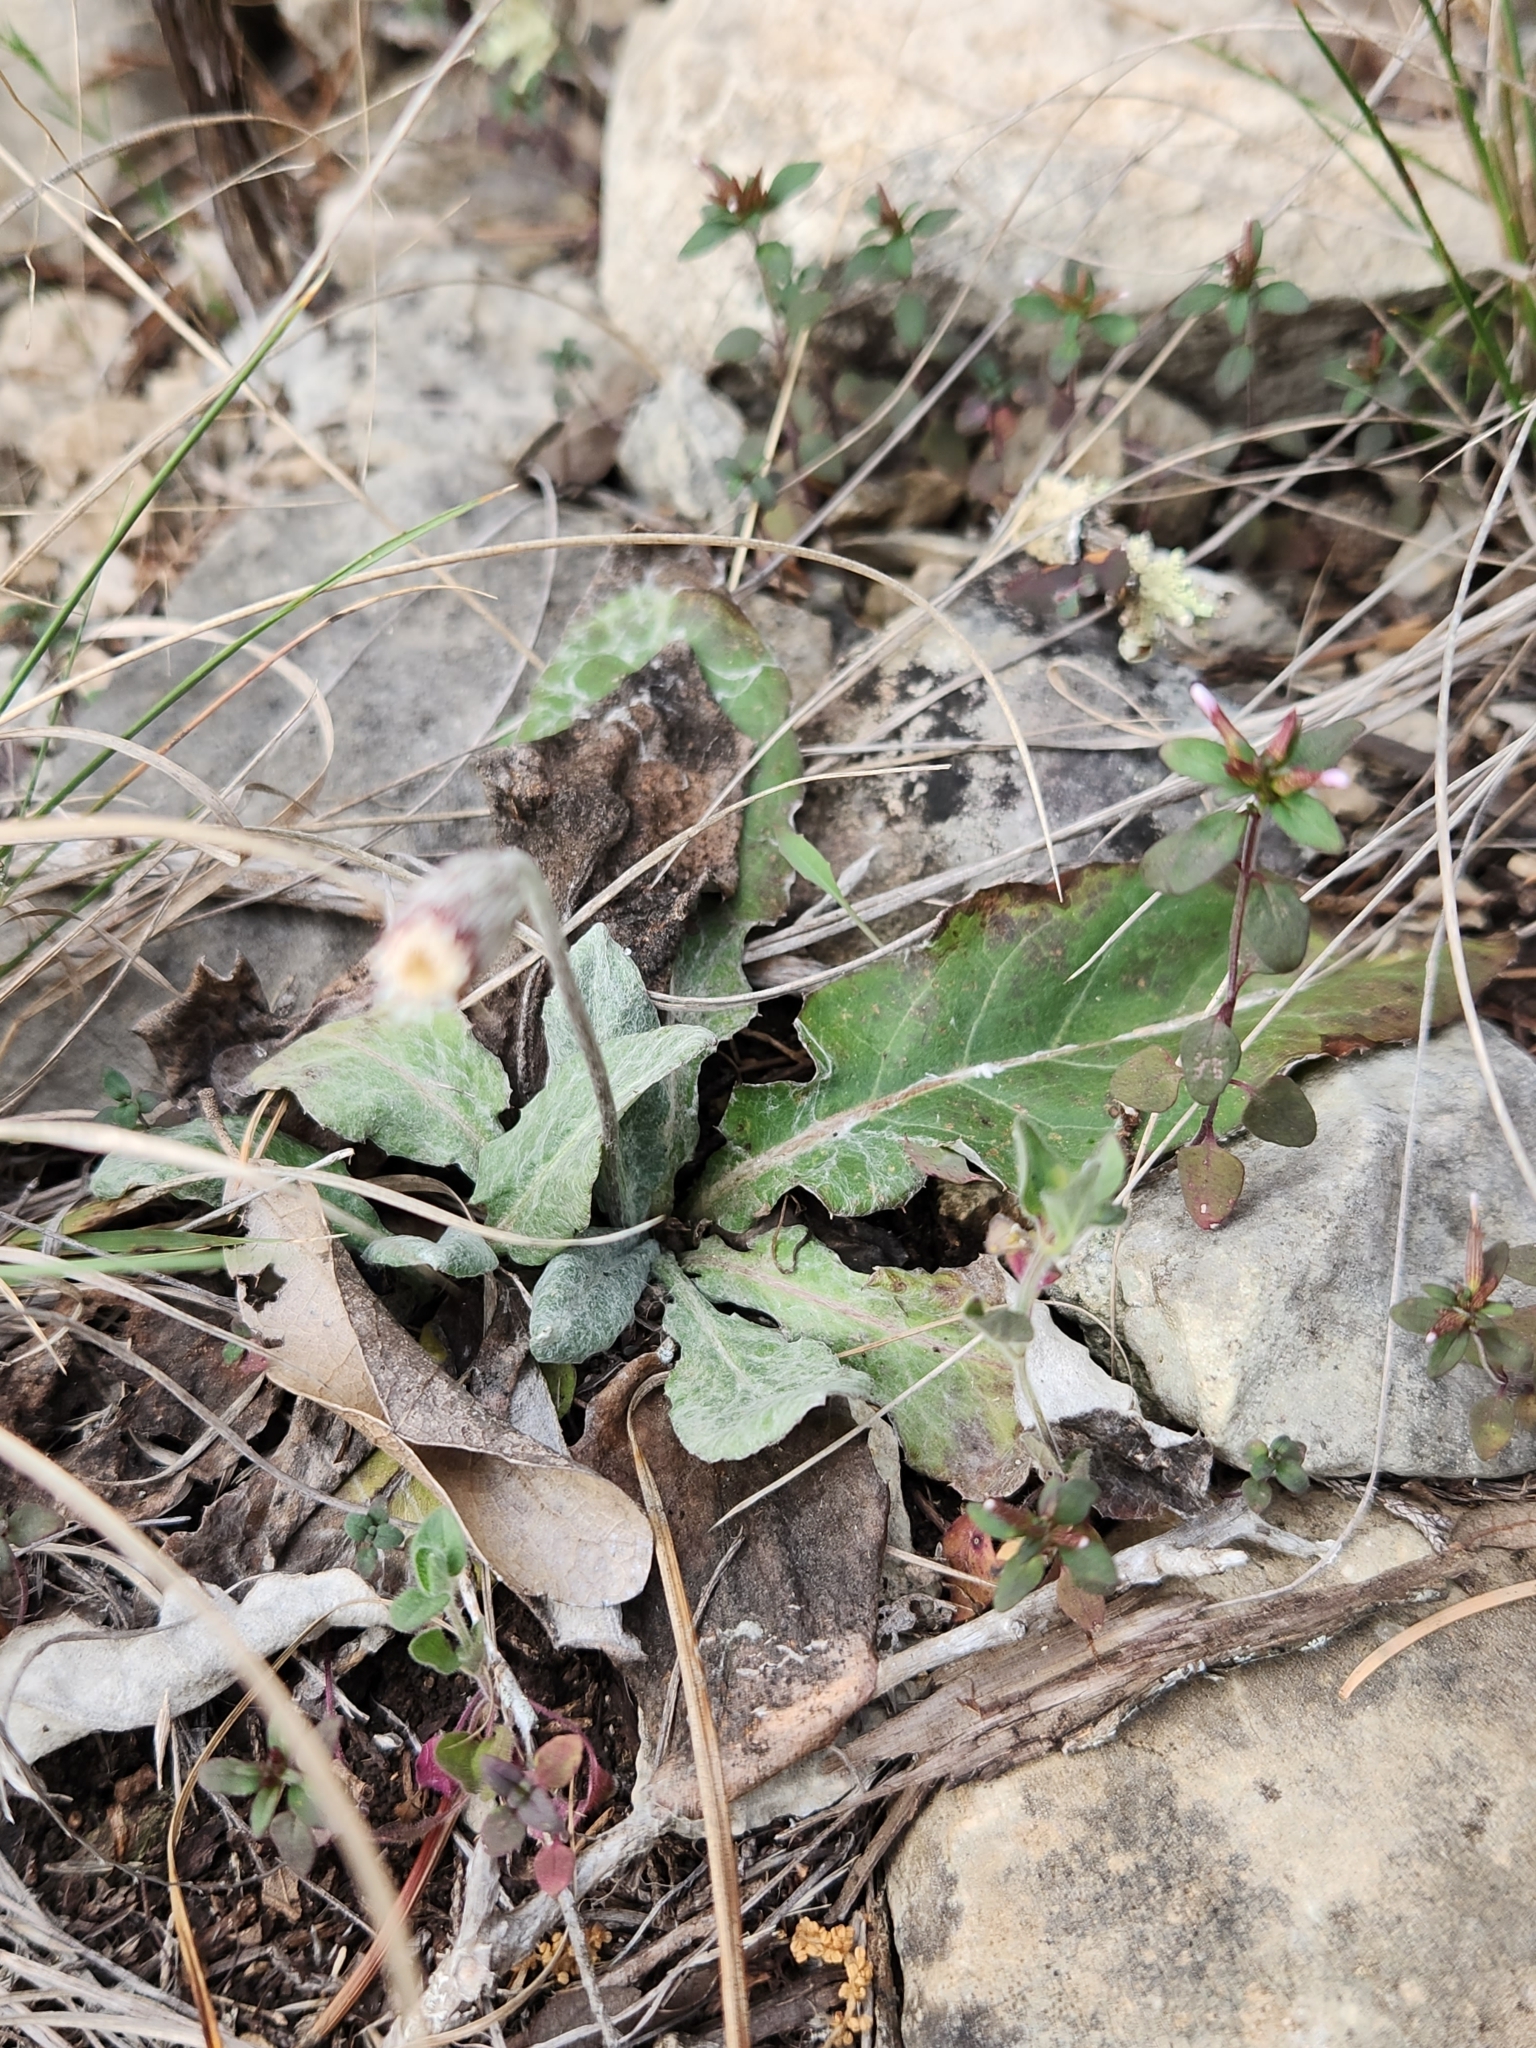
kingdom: Plantae
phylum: Tracheophyta
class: Magnoliopsida
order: Asterales
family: Asteraceae
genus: Chaptalia
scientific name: Chaptalia texana
